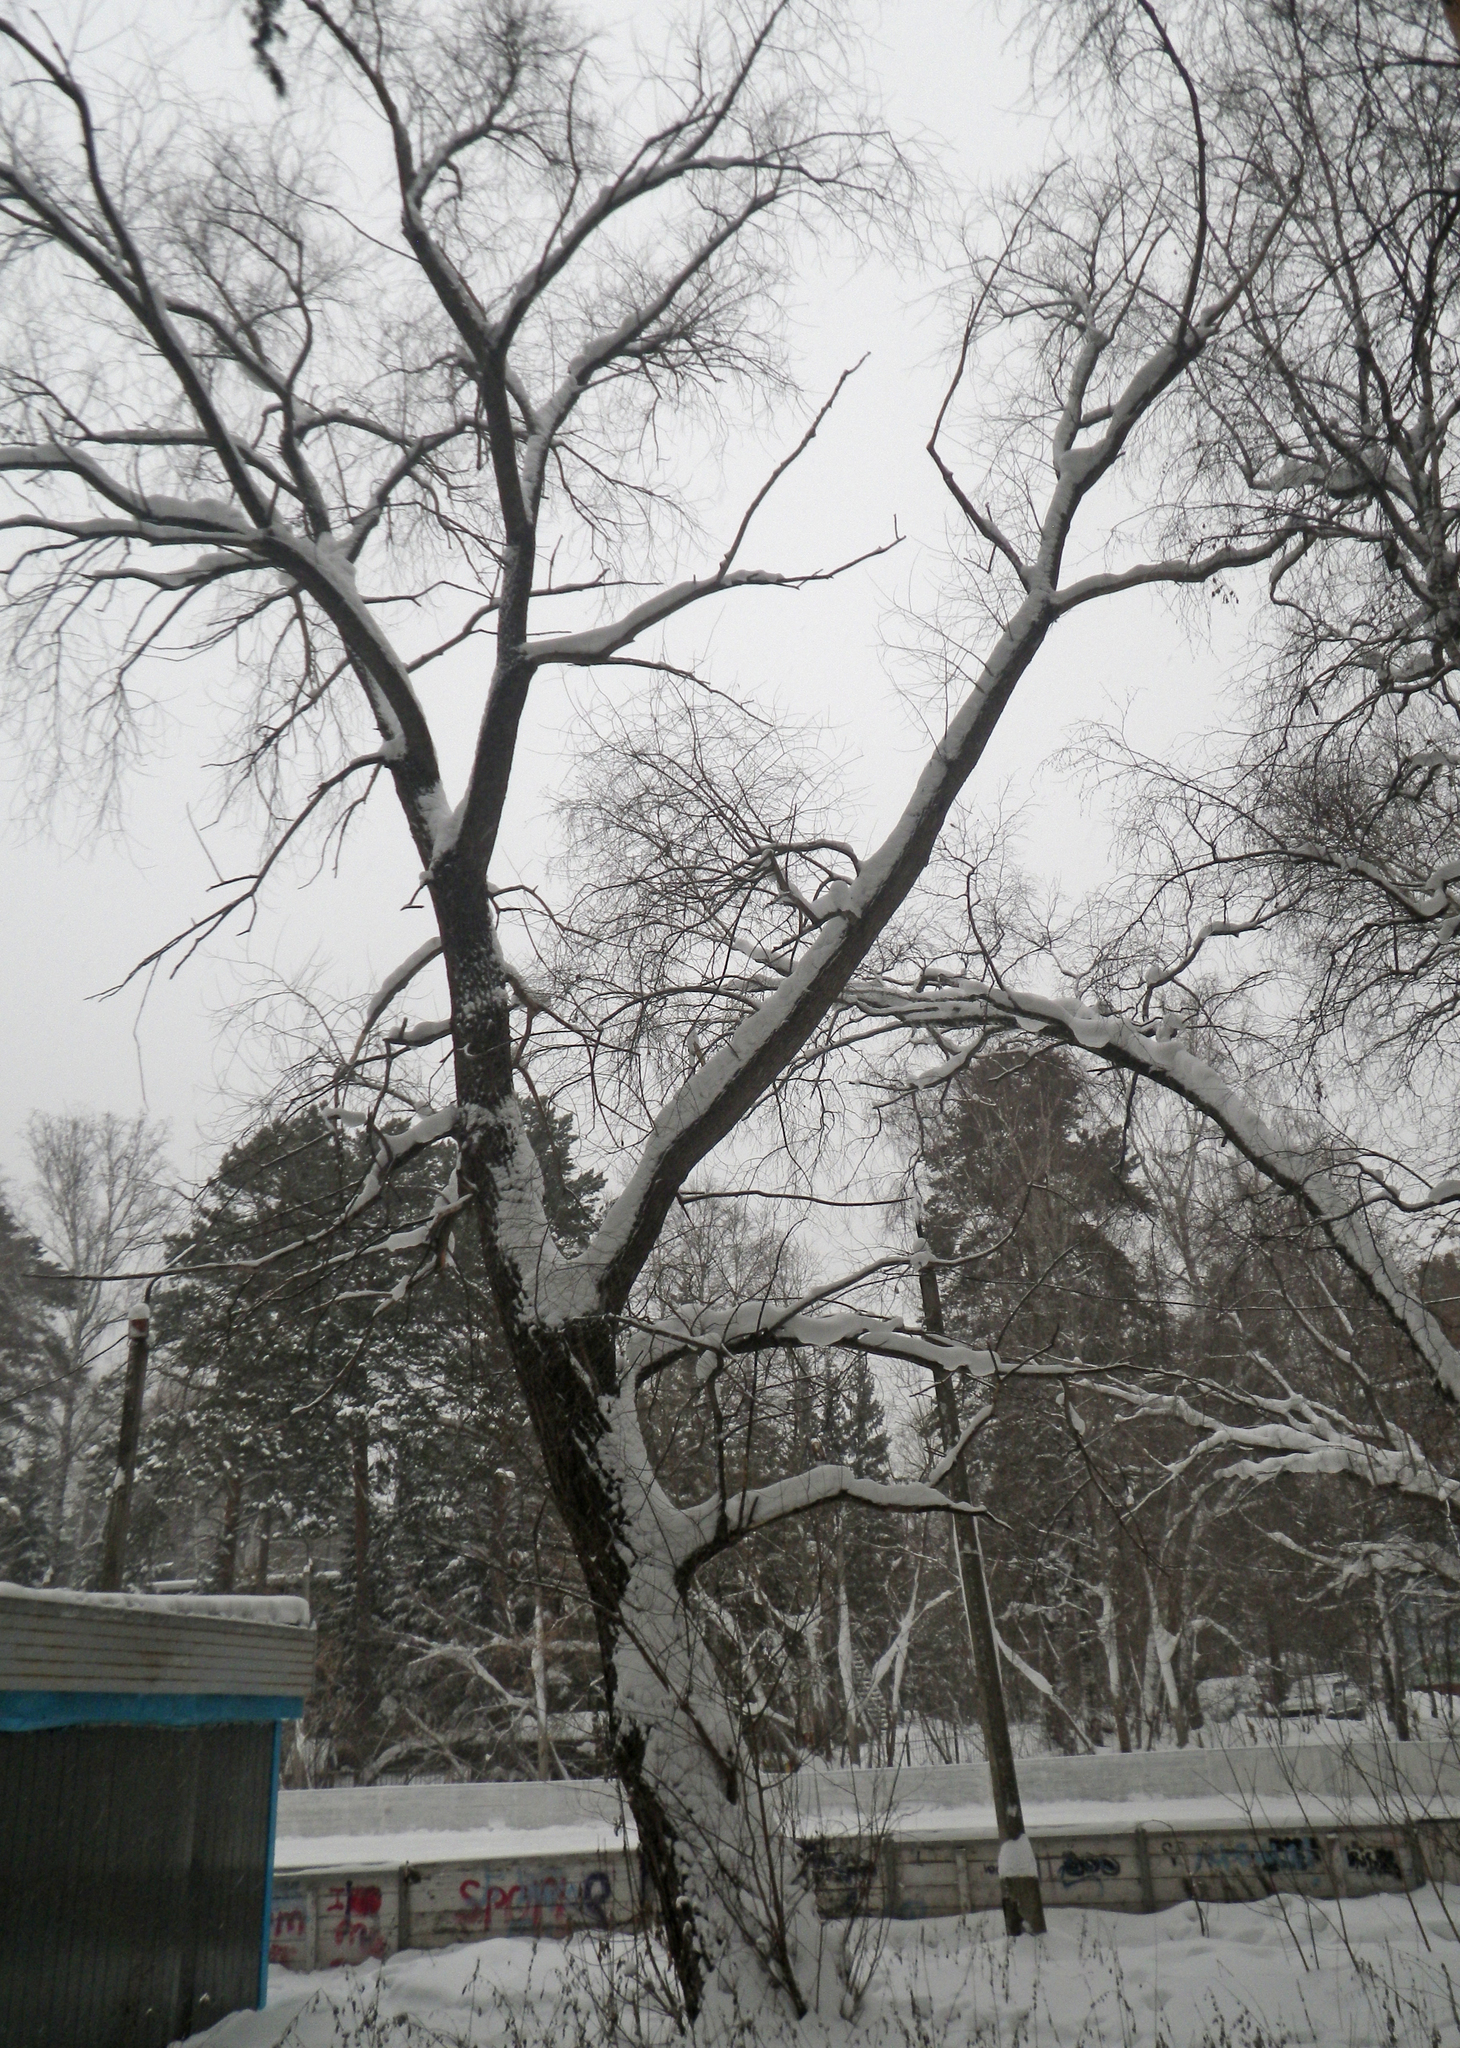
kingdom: Plantae
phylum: Tracheophyta
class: Magnoliopsida
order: Malpighiales
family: Salicaceae
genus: Salix
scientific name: Salix alba
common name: White willow
